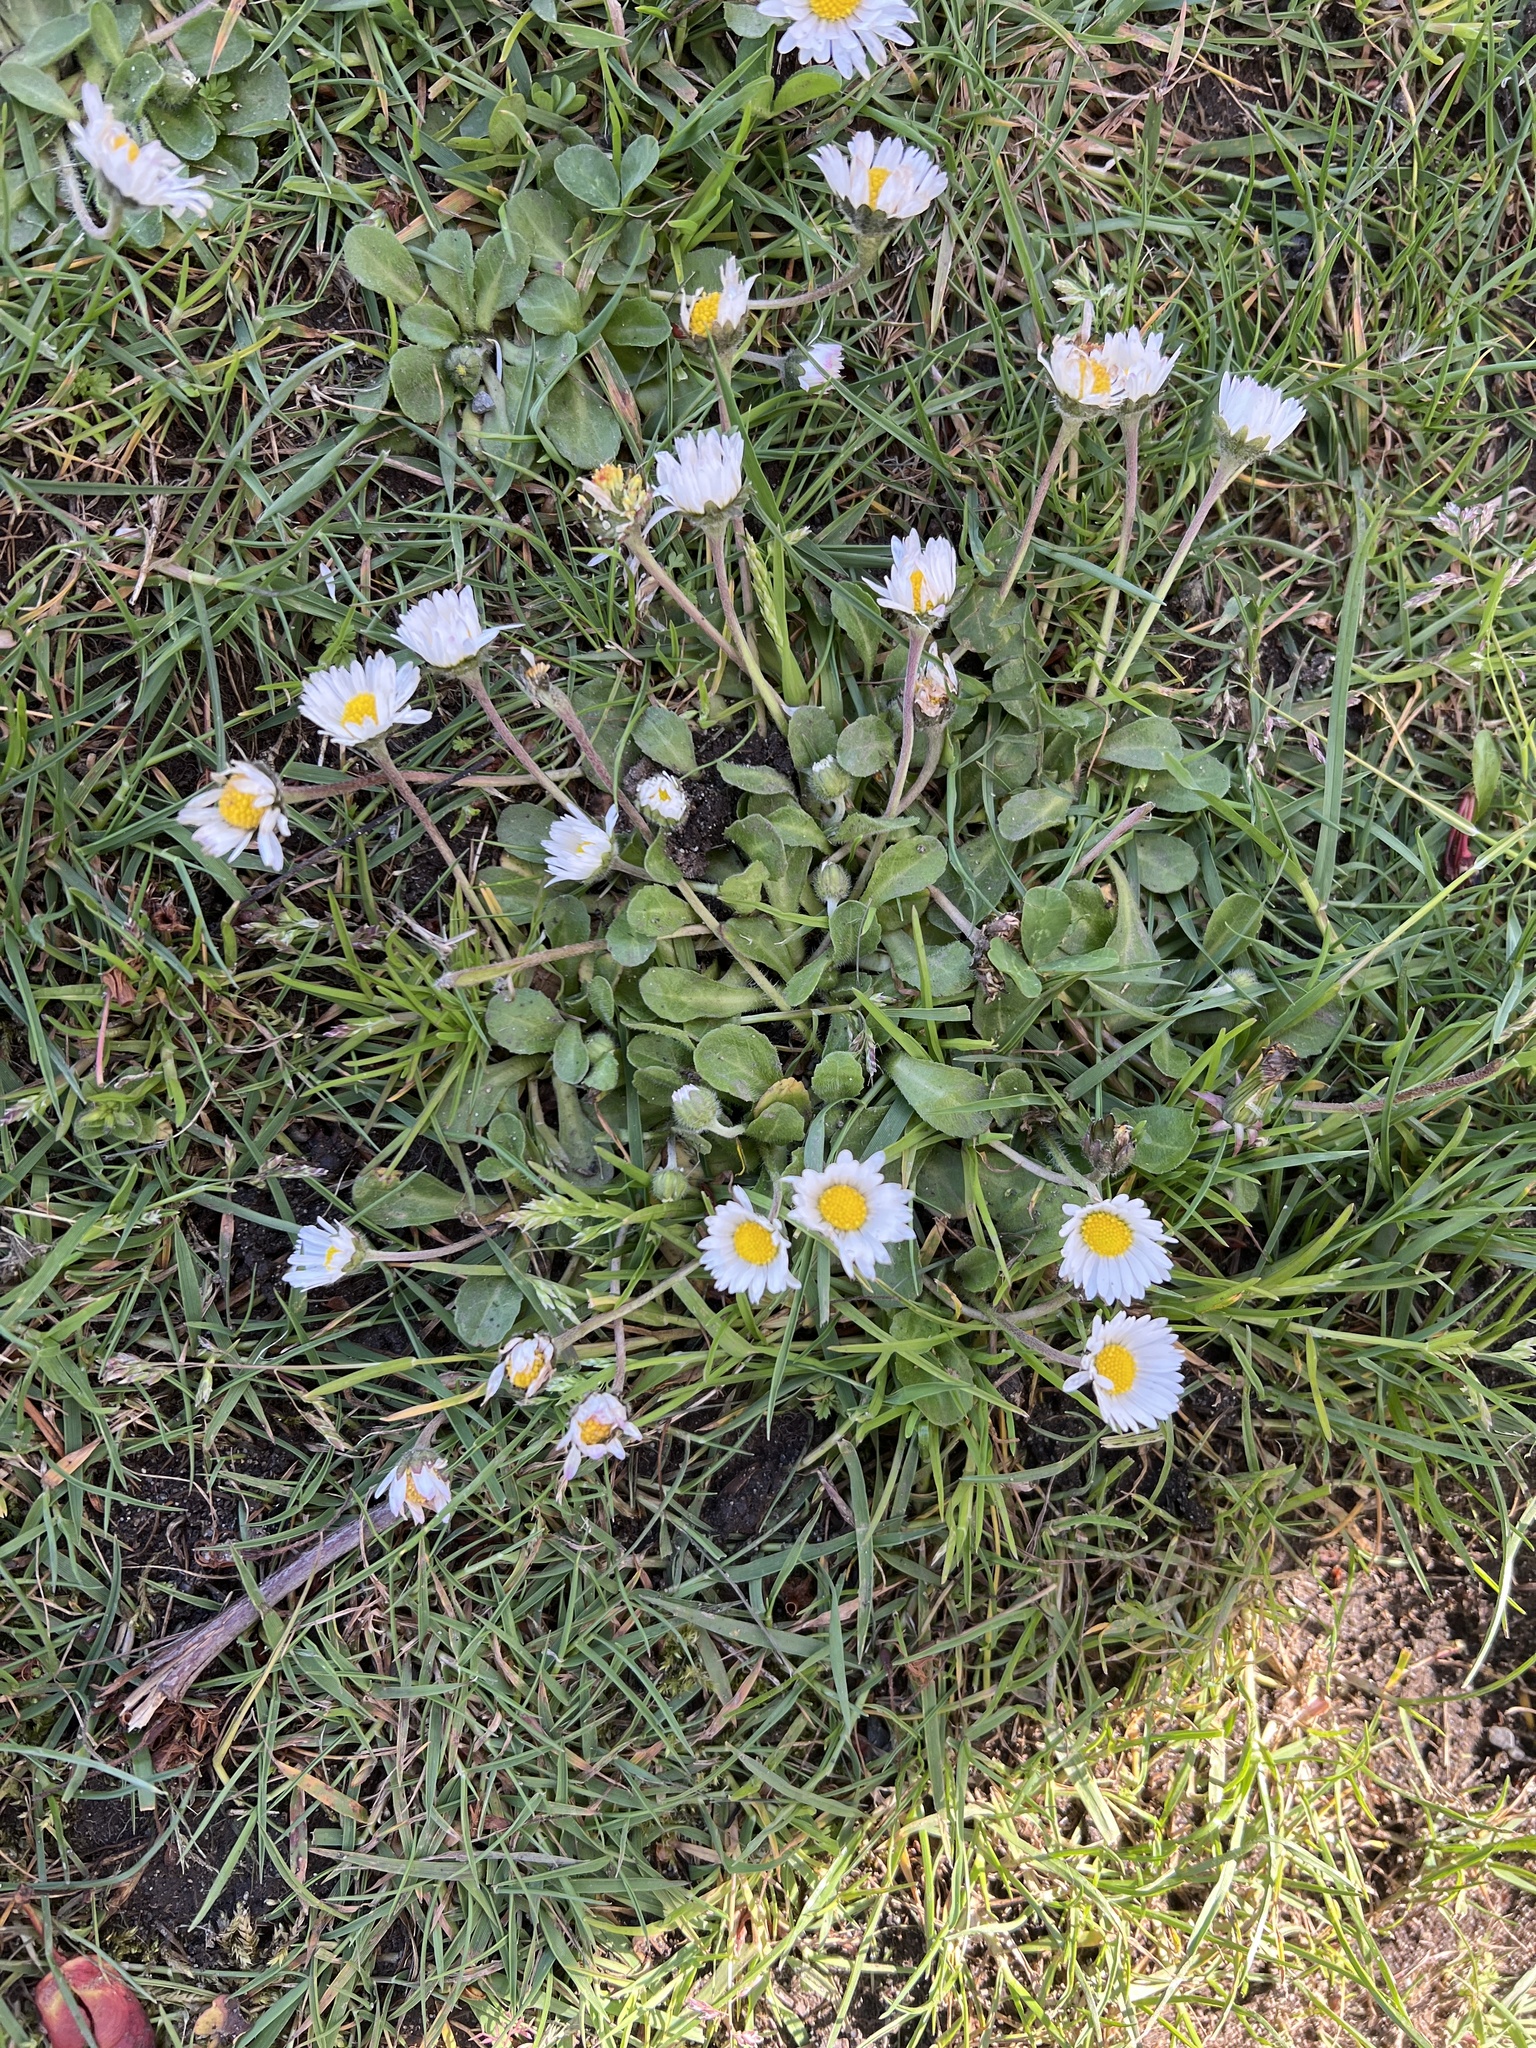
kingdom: Plantae
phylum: Tracheophyta
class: Magnoliopsida
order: Asterales
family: Asteraceae
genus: Bellis
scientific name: Bellis perennis
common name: Lawndaisy
